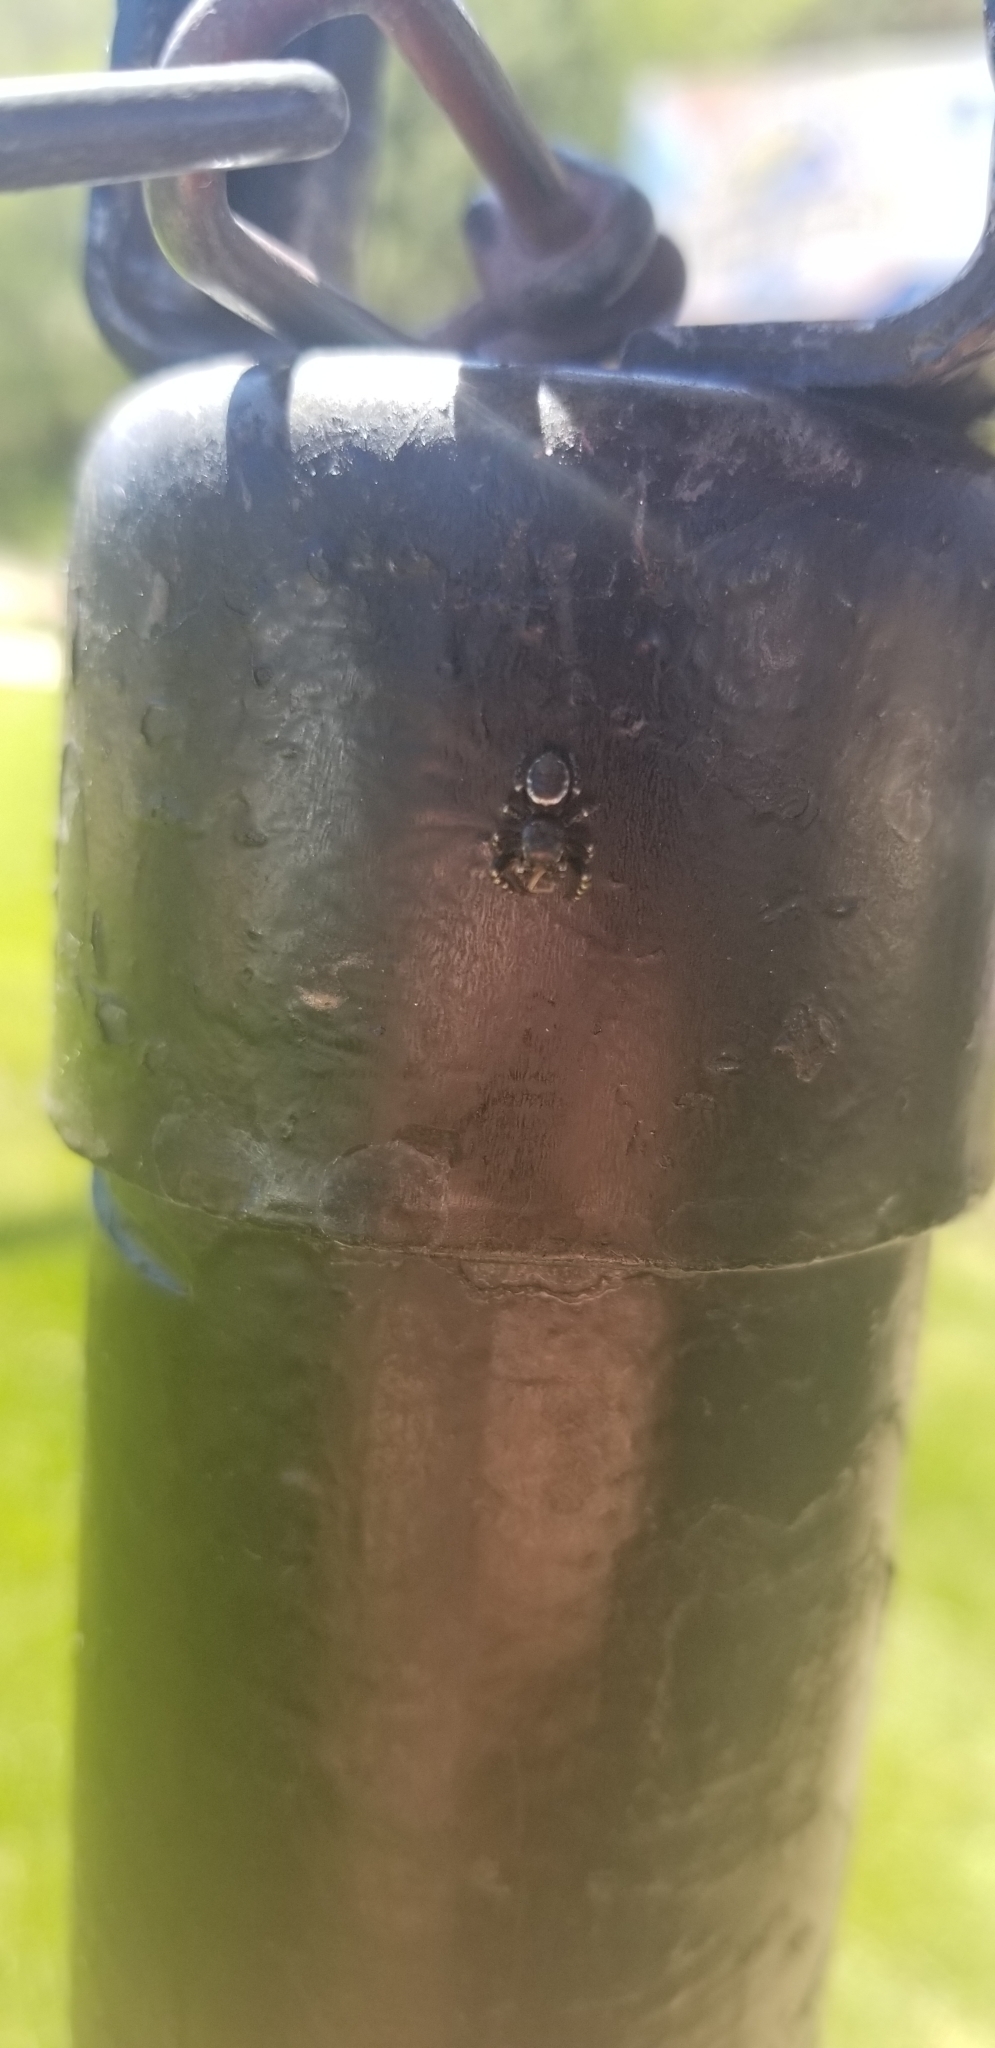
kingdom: Animalia
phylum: Arthropoda
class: Arachnida
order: Araneae
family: Salticidae
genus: Pelegrina
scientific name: Pelegrina aeneola
